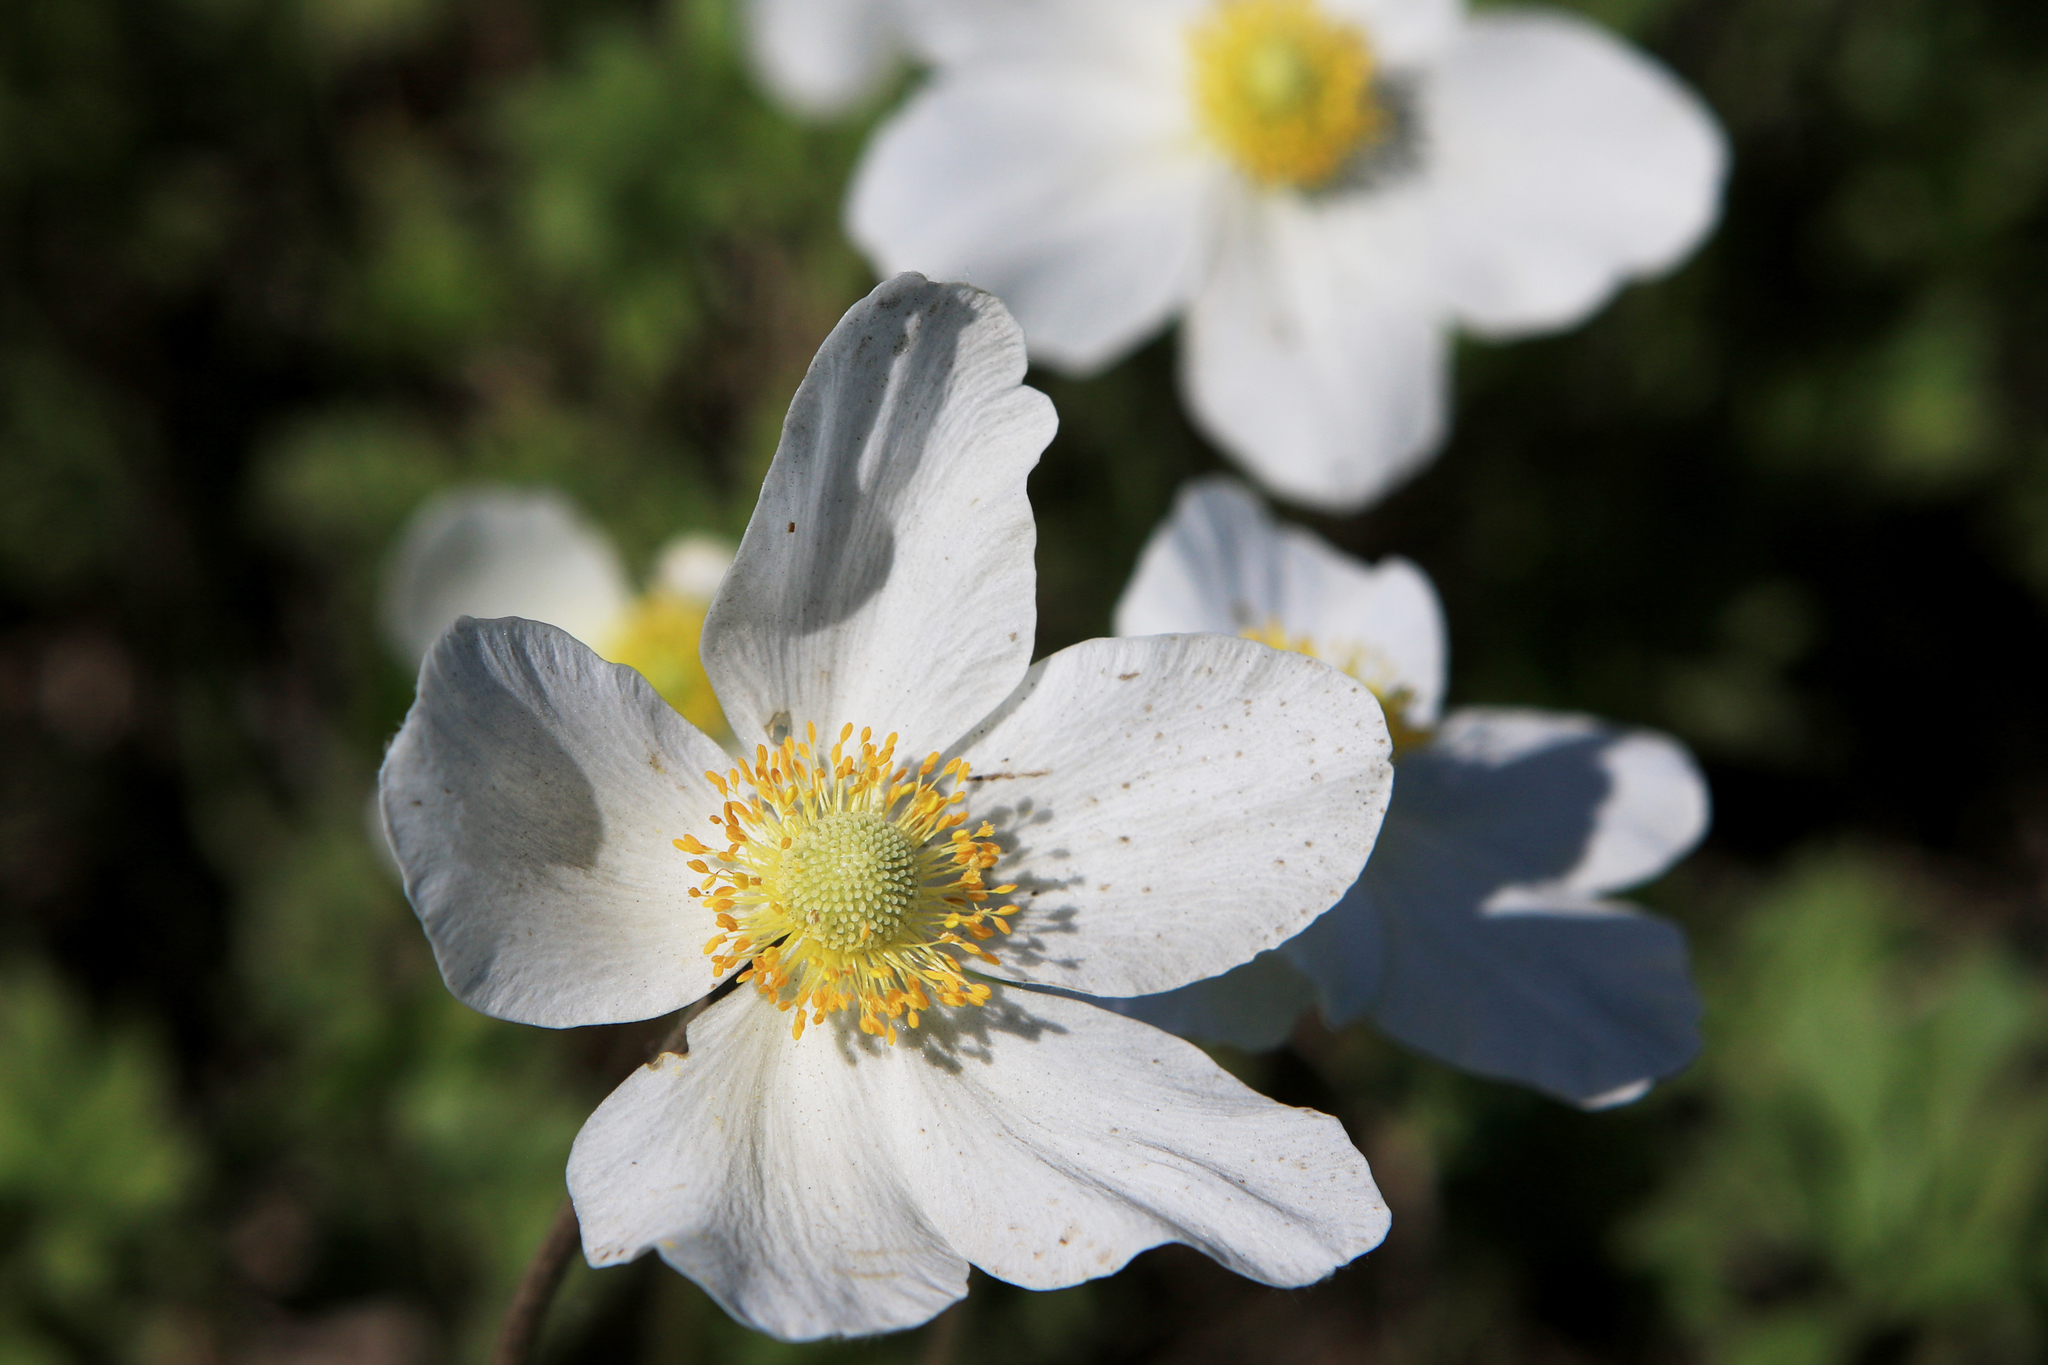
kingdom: Plantae
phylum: Tracheophyta
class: Magnoliopsida
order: Ranunculales
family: Ranunculaceae
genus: Anemone
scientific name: Anemone sylvestris
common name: Snowdrop anemone
